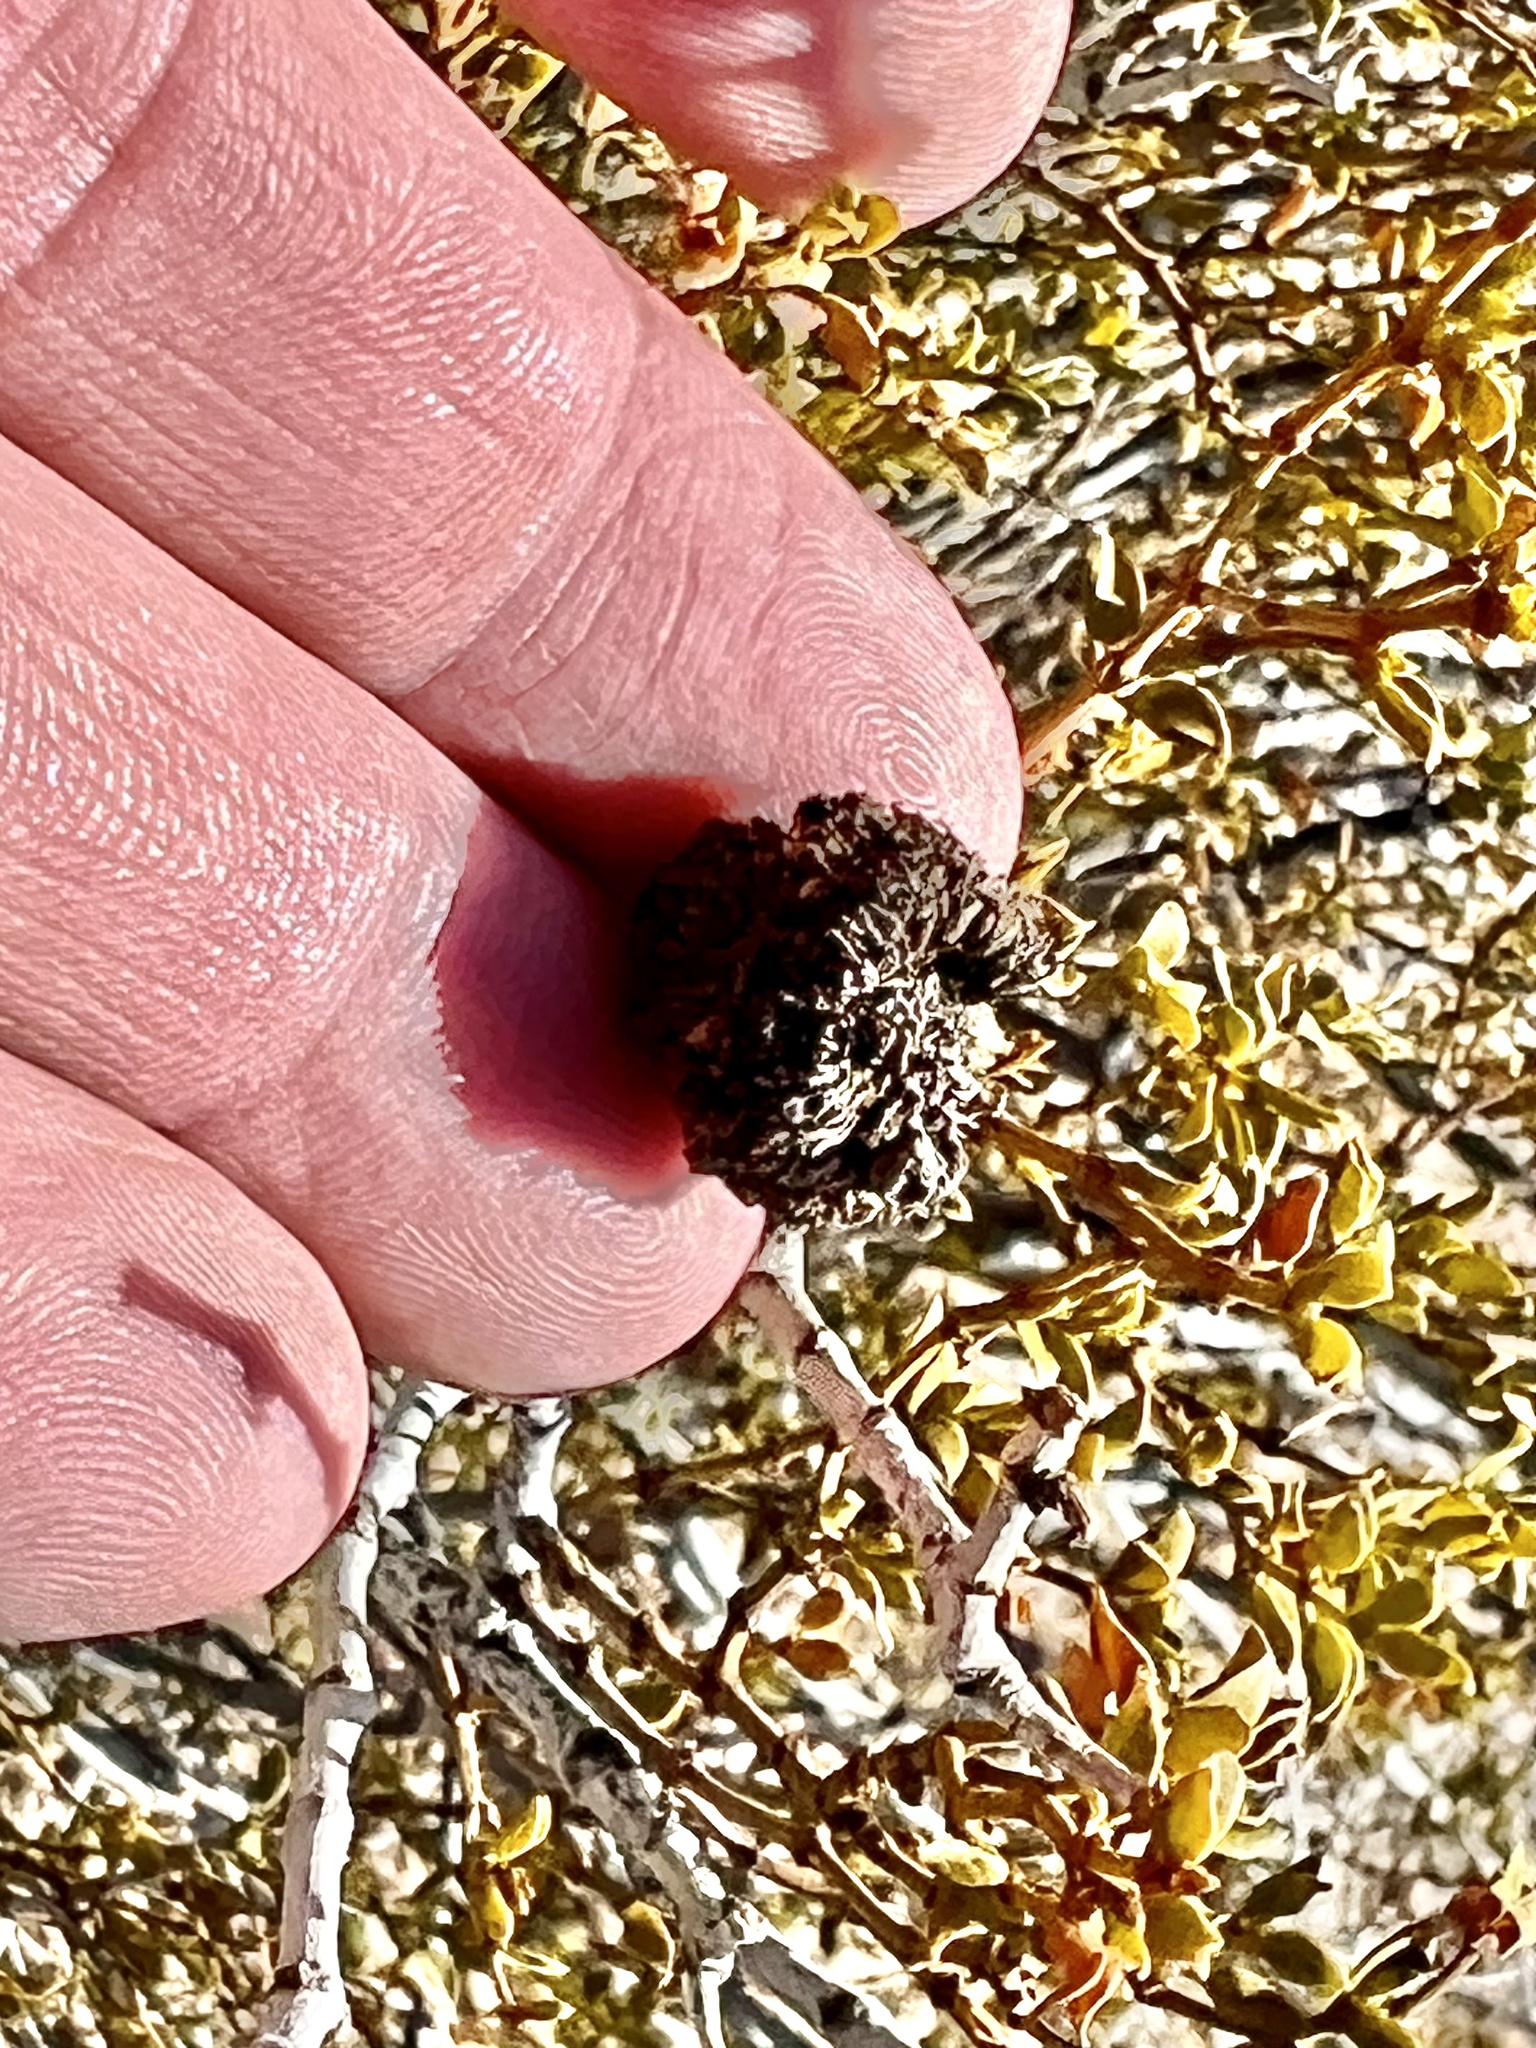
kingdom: Animalia
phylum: Arthropoda
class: Insecta
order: Diptera
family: Cecidomyiidae
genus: Asphondylia
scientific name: Asphondylia auripila
